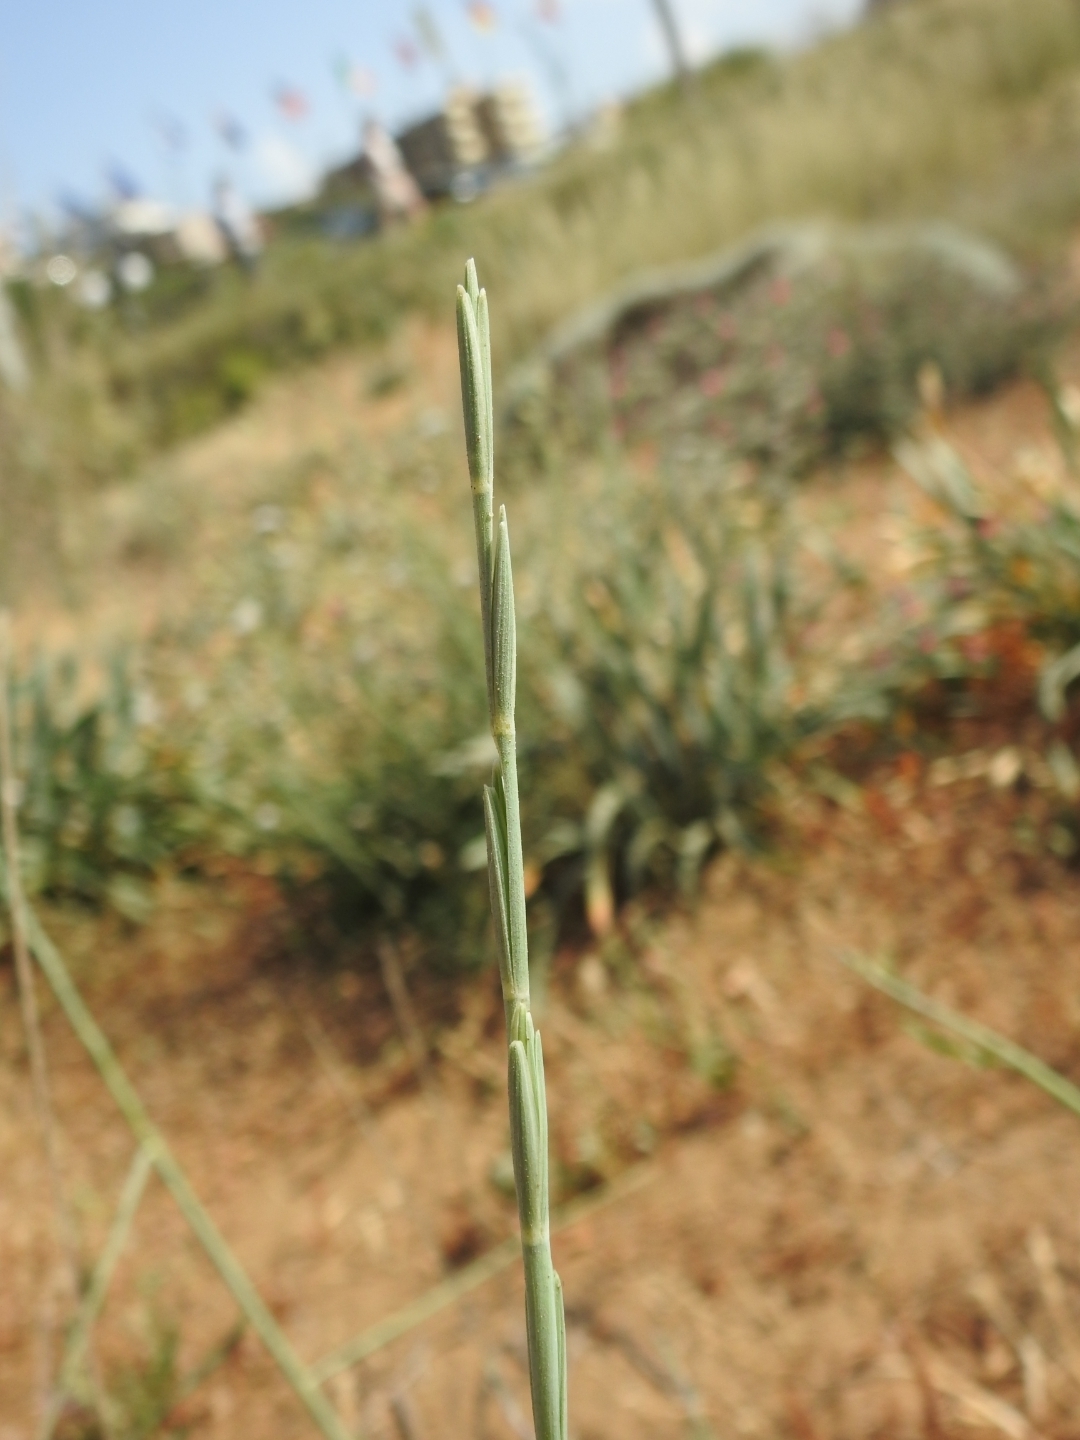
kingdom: Plantae
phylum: Tracheophyta
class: Liliopsida
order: Poales
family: Poaceae
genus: Thinopyrum
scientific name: Thinopyrum junceum
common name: Russian wheatgrass
